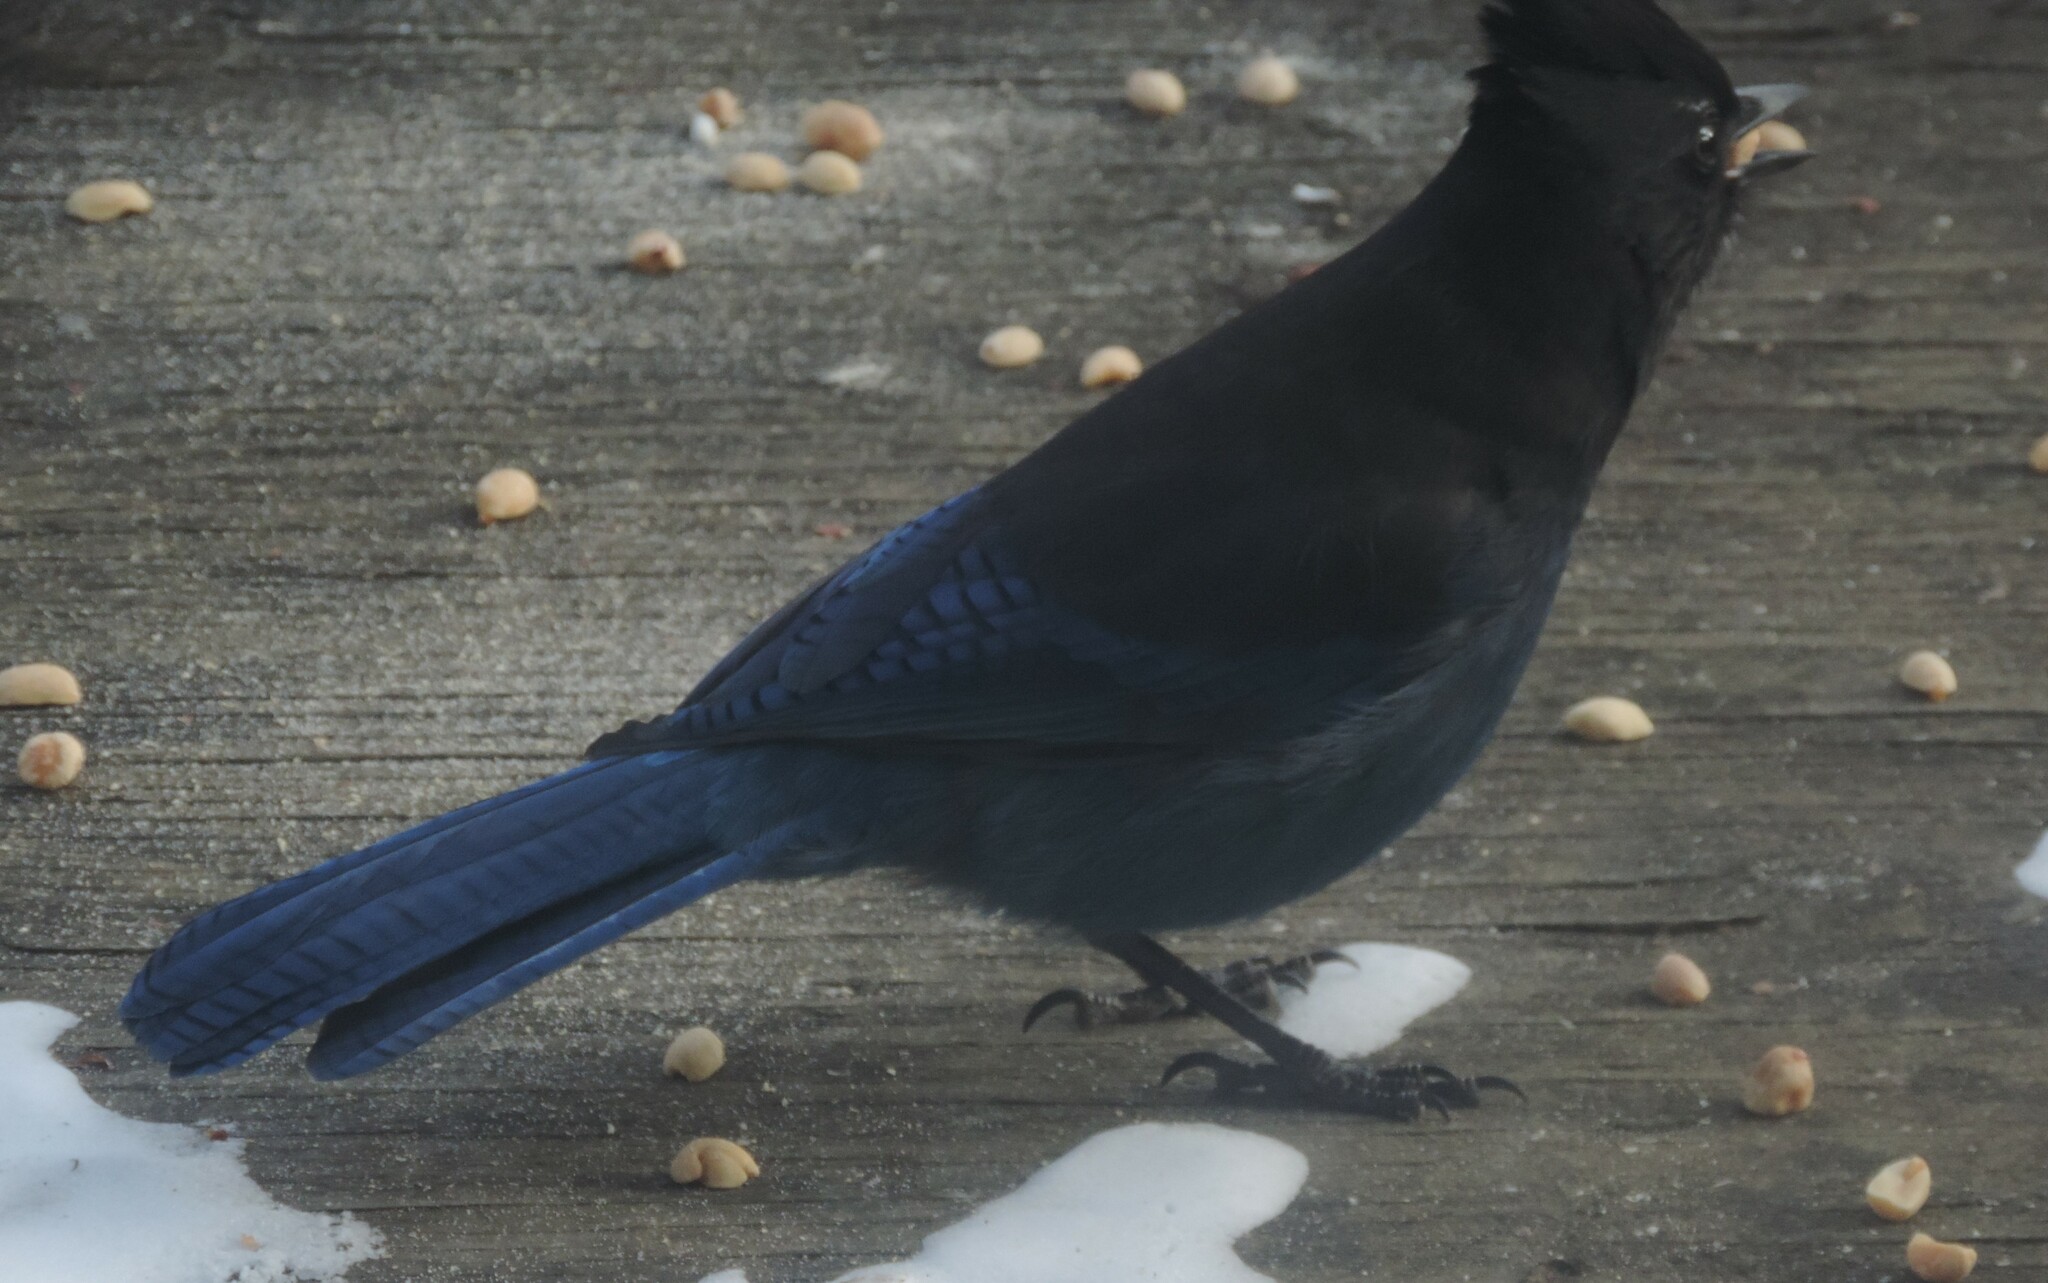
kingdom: Animalia
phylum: Chordata
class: Aves
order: Passeriformes
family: Corvidae
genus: Cyanocitta
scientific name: Cyanocitta stelleri
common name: Steller's jay
